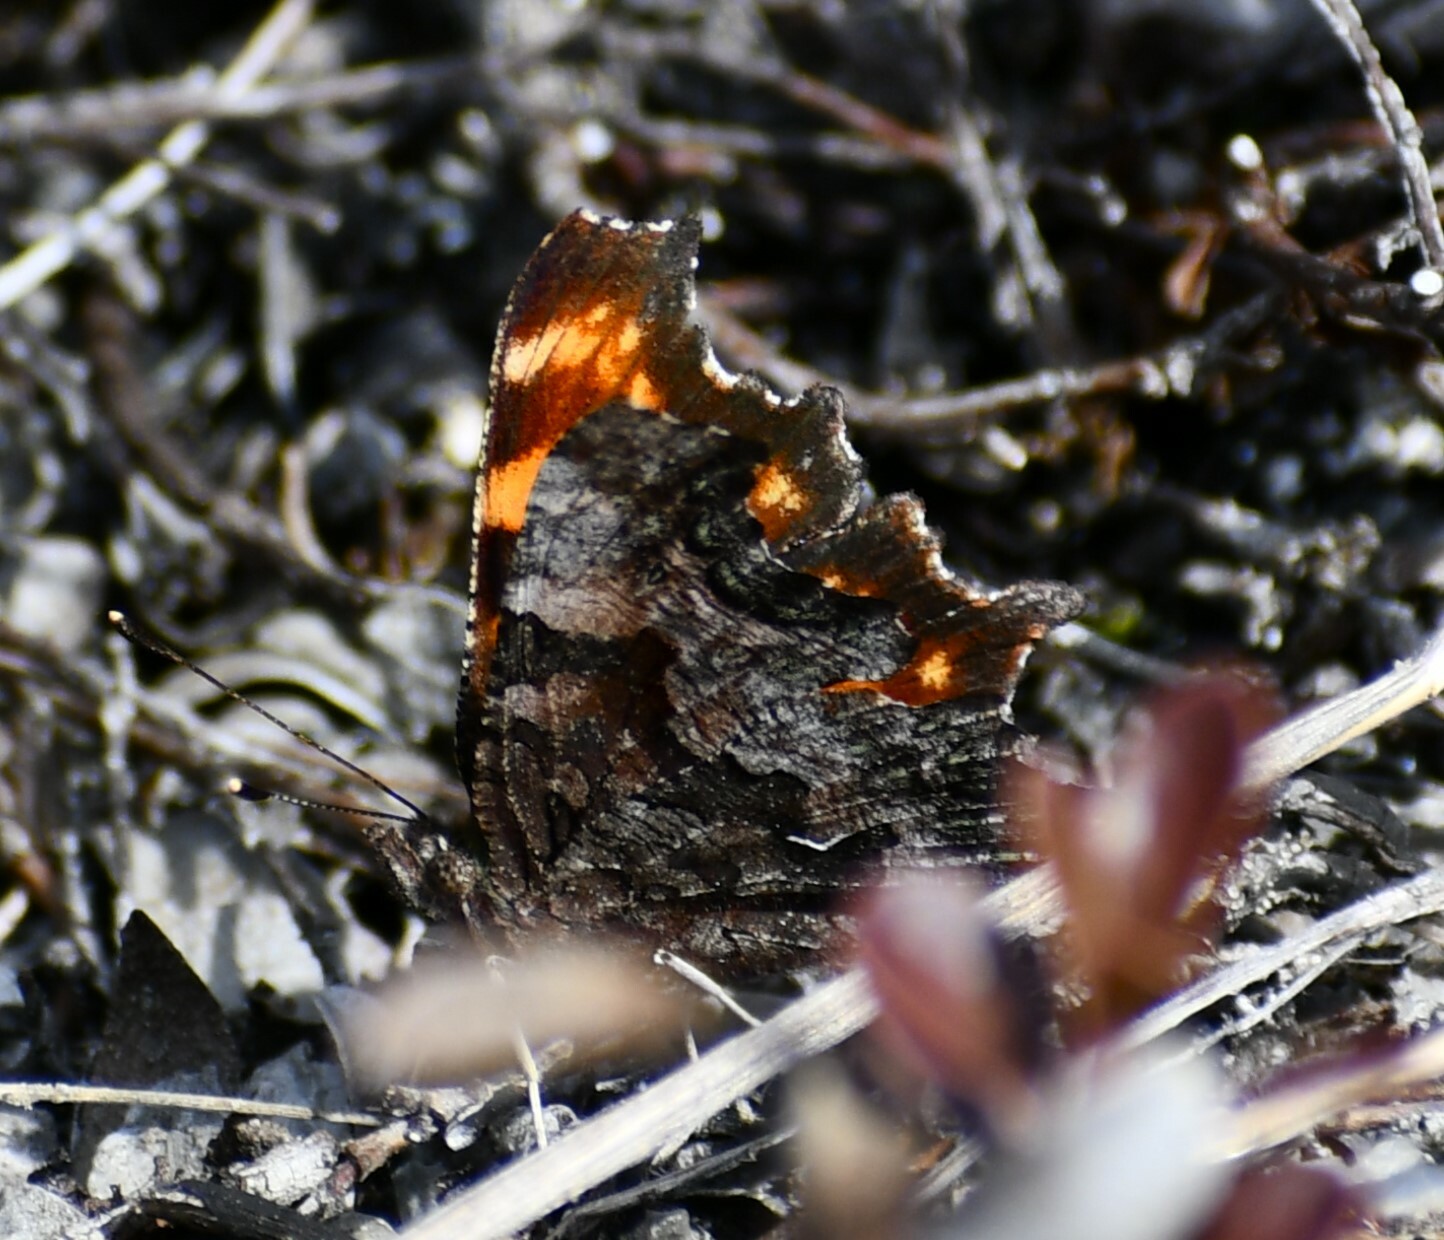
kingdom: Animalia
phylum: Arthropoda
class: Insecta
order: Lepidoptera
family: Nymphalidae
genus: Polygonia
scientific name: Polygonia faunus
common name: Green comma
